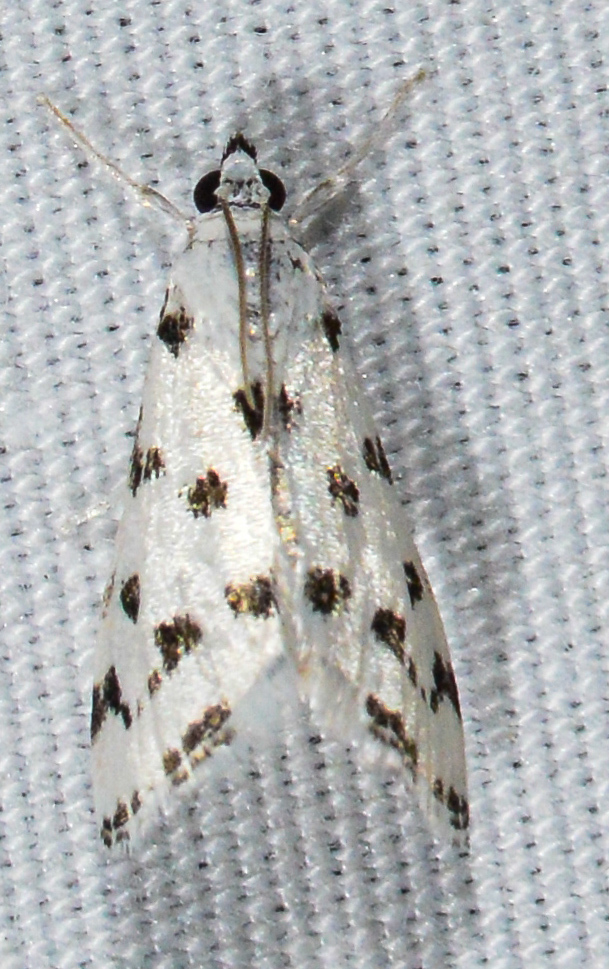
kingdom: Animalia
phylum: Arthropoda
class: Insecta
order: Lepidoptera
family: Crambidae
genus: Eustixia
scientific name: Eustixia pupula
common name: American cabbage pearl
